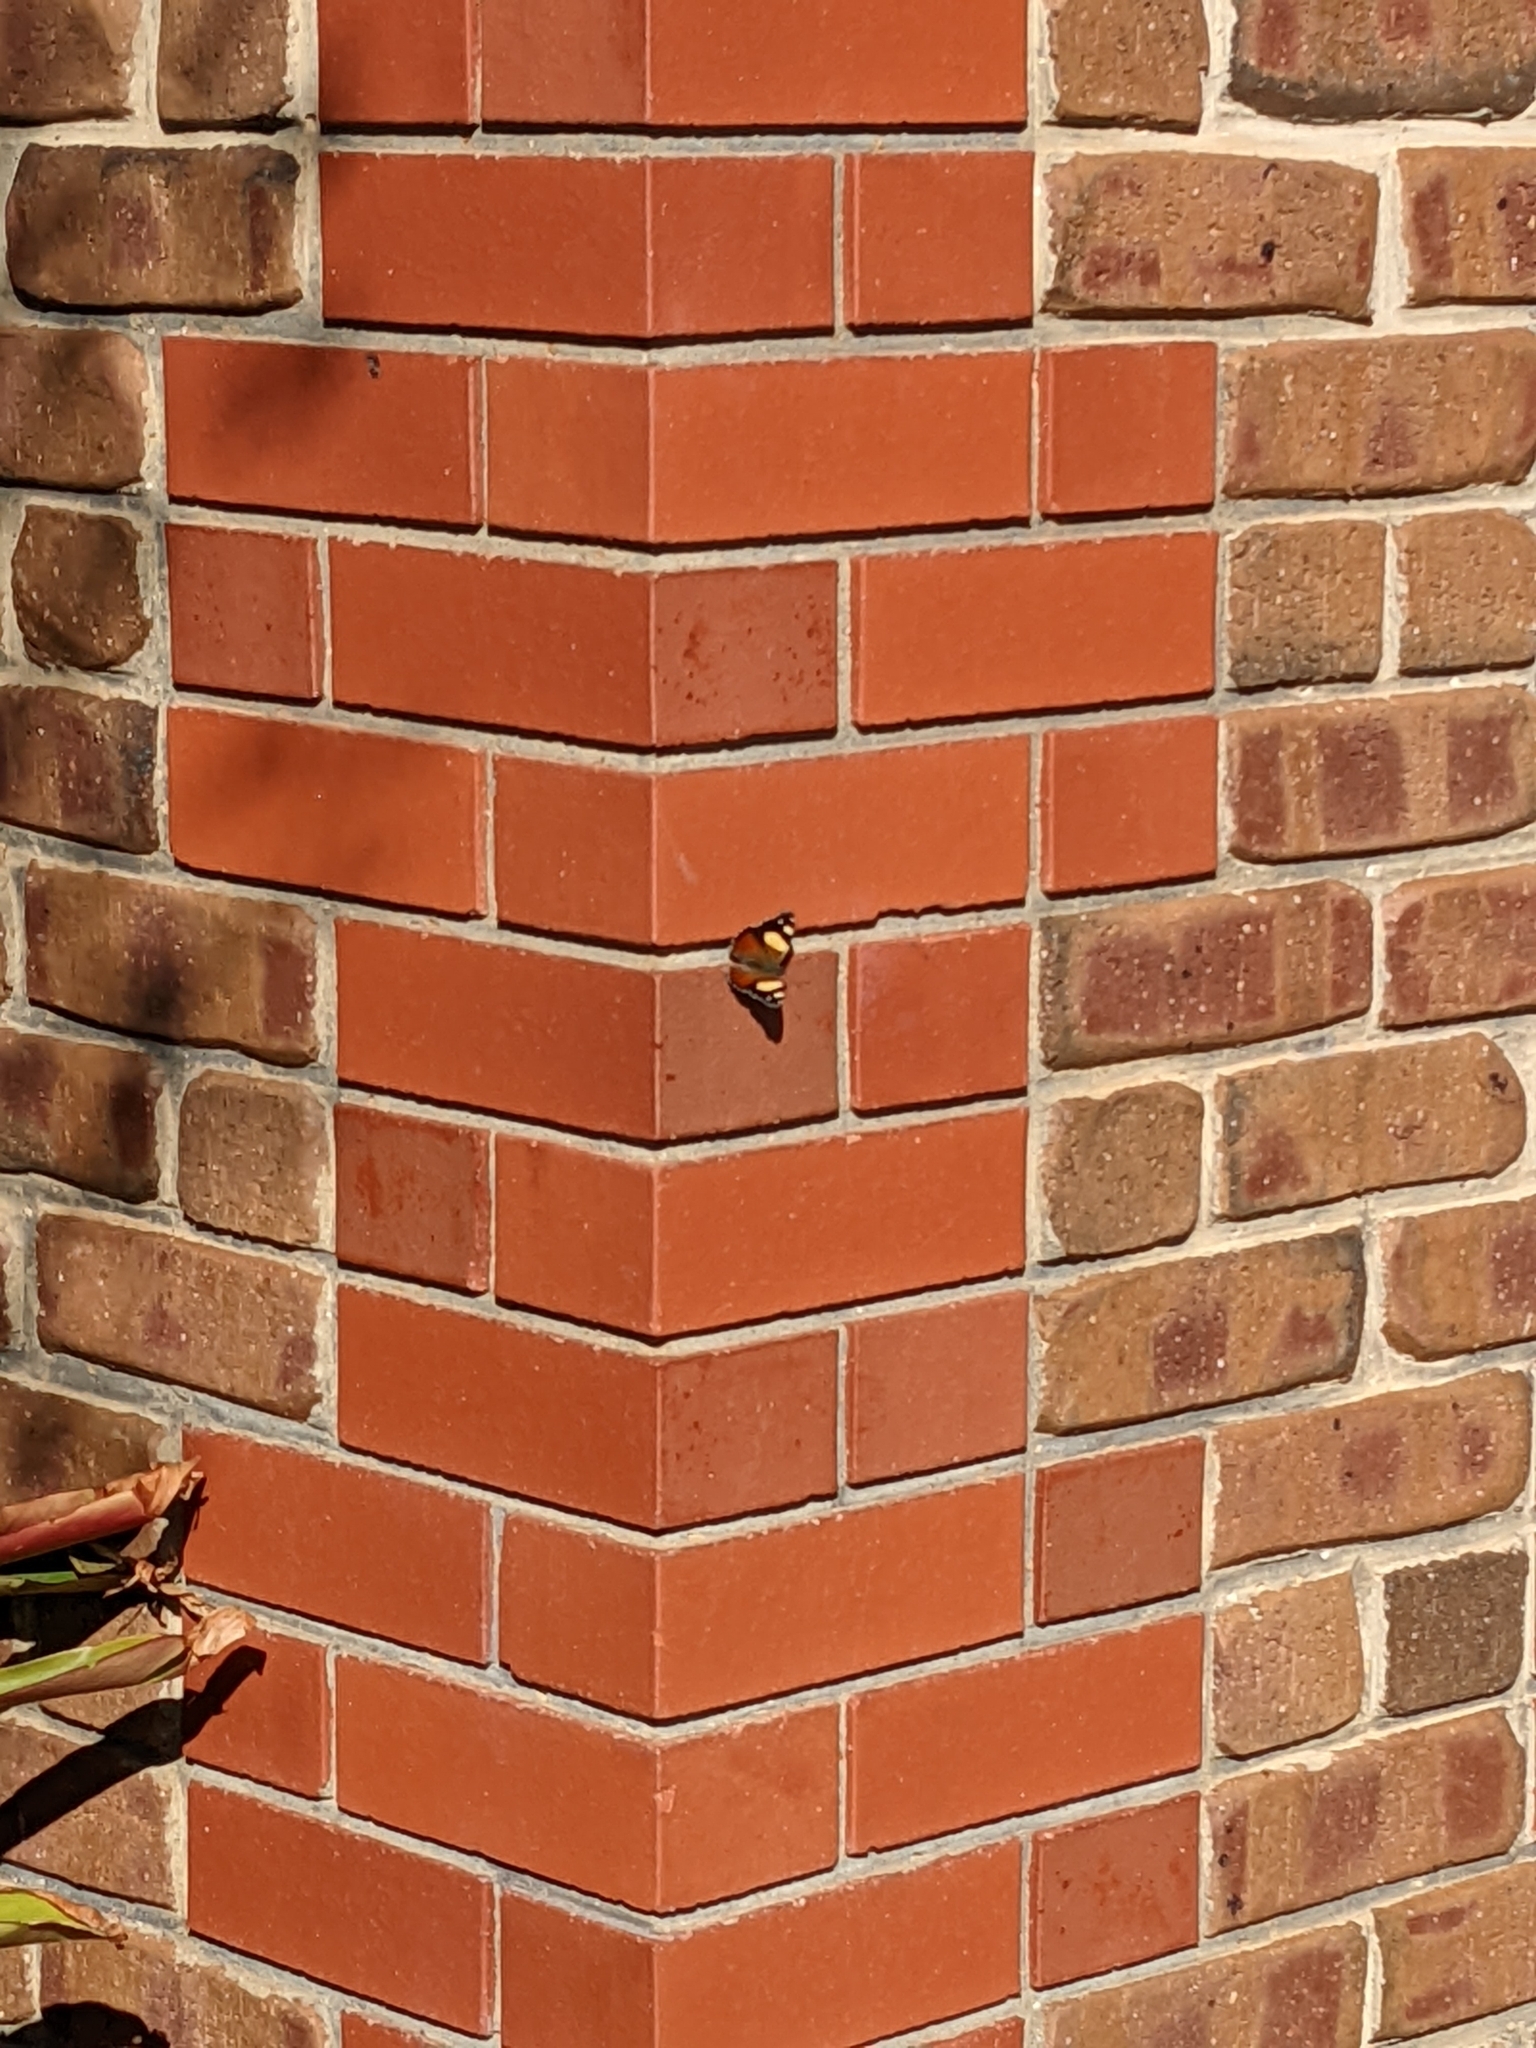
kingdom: Animalia
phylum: Arthropoda
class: Insecta
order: Lepidoptera
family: Nymphalidae
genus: Vanessa
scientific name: Vanessa itea
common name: Yellow admiral
